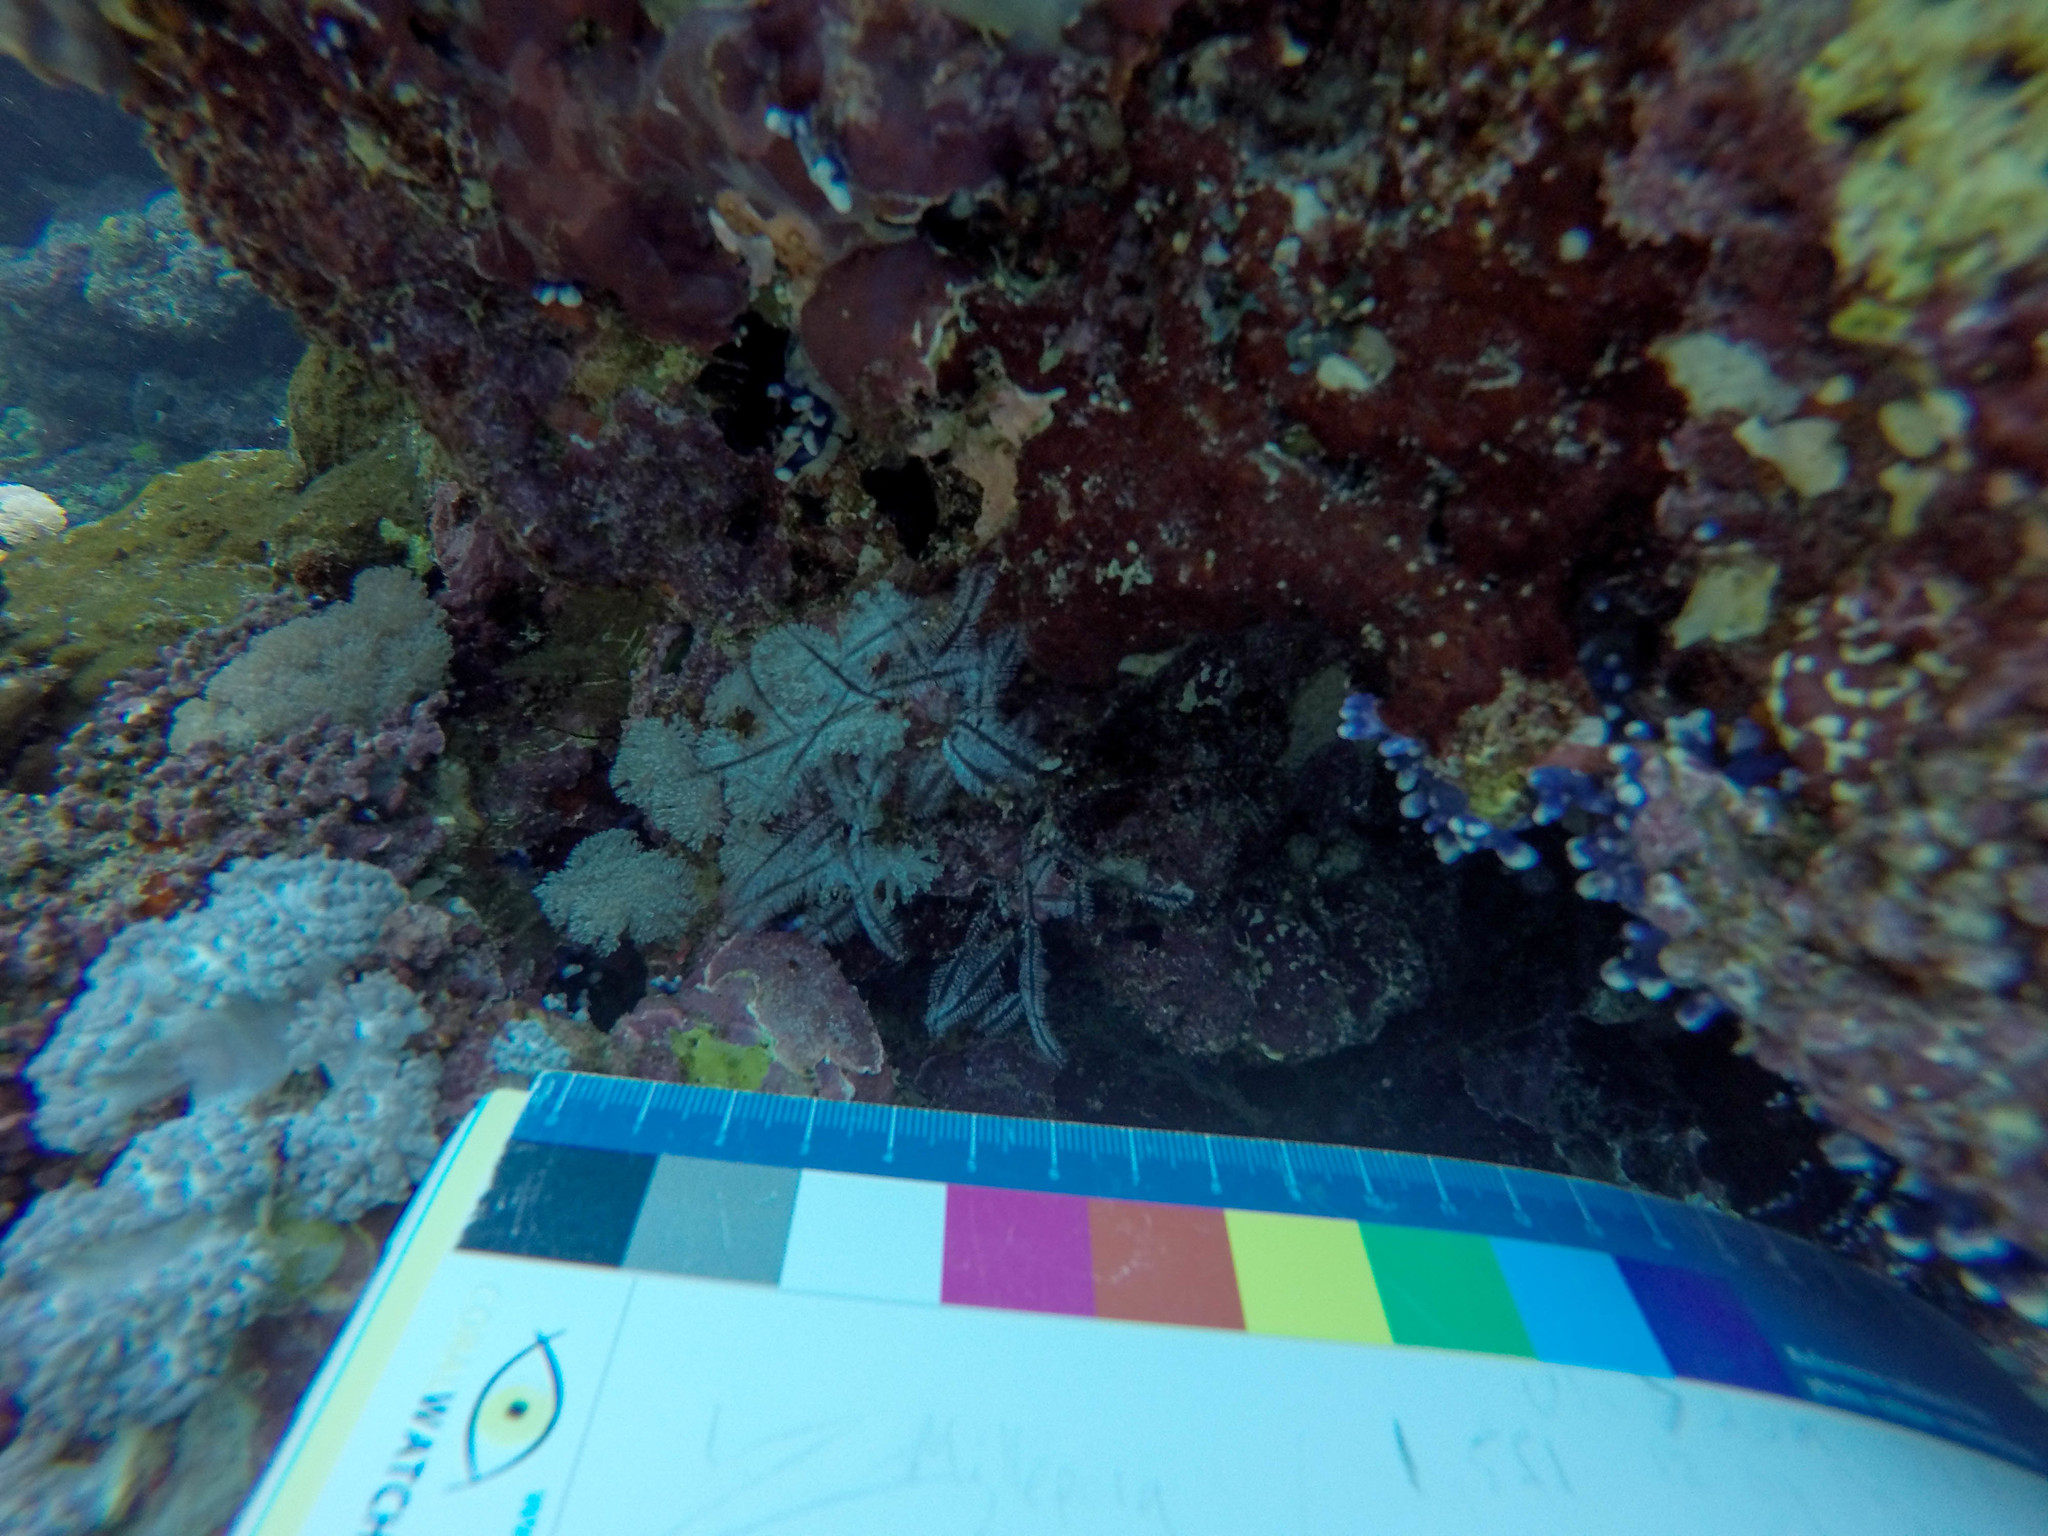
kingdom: Animalia
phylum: Cnidaria
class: Hydrozoa
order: Leptothecata
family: Aglaopheniidae
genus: Macrorhynchia
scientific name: Macrorhynchia philippina
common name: Stinging hydroid
